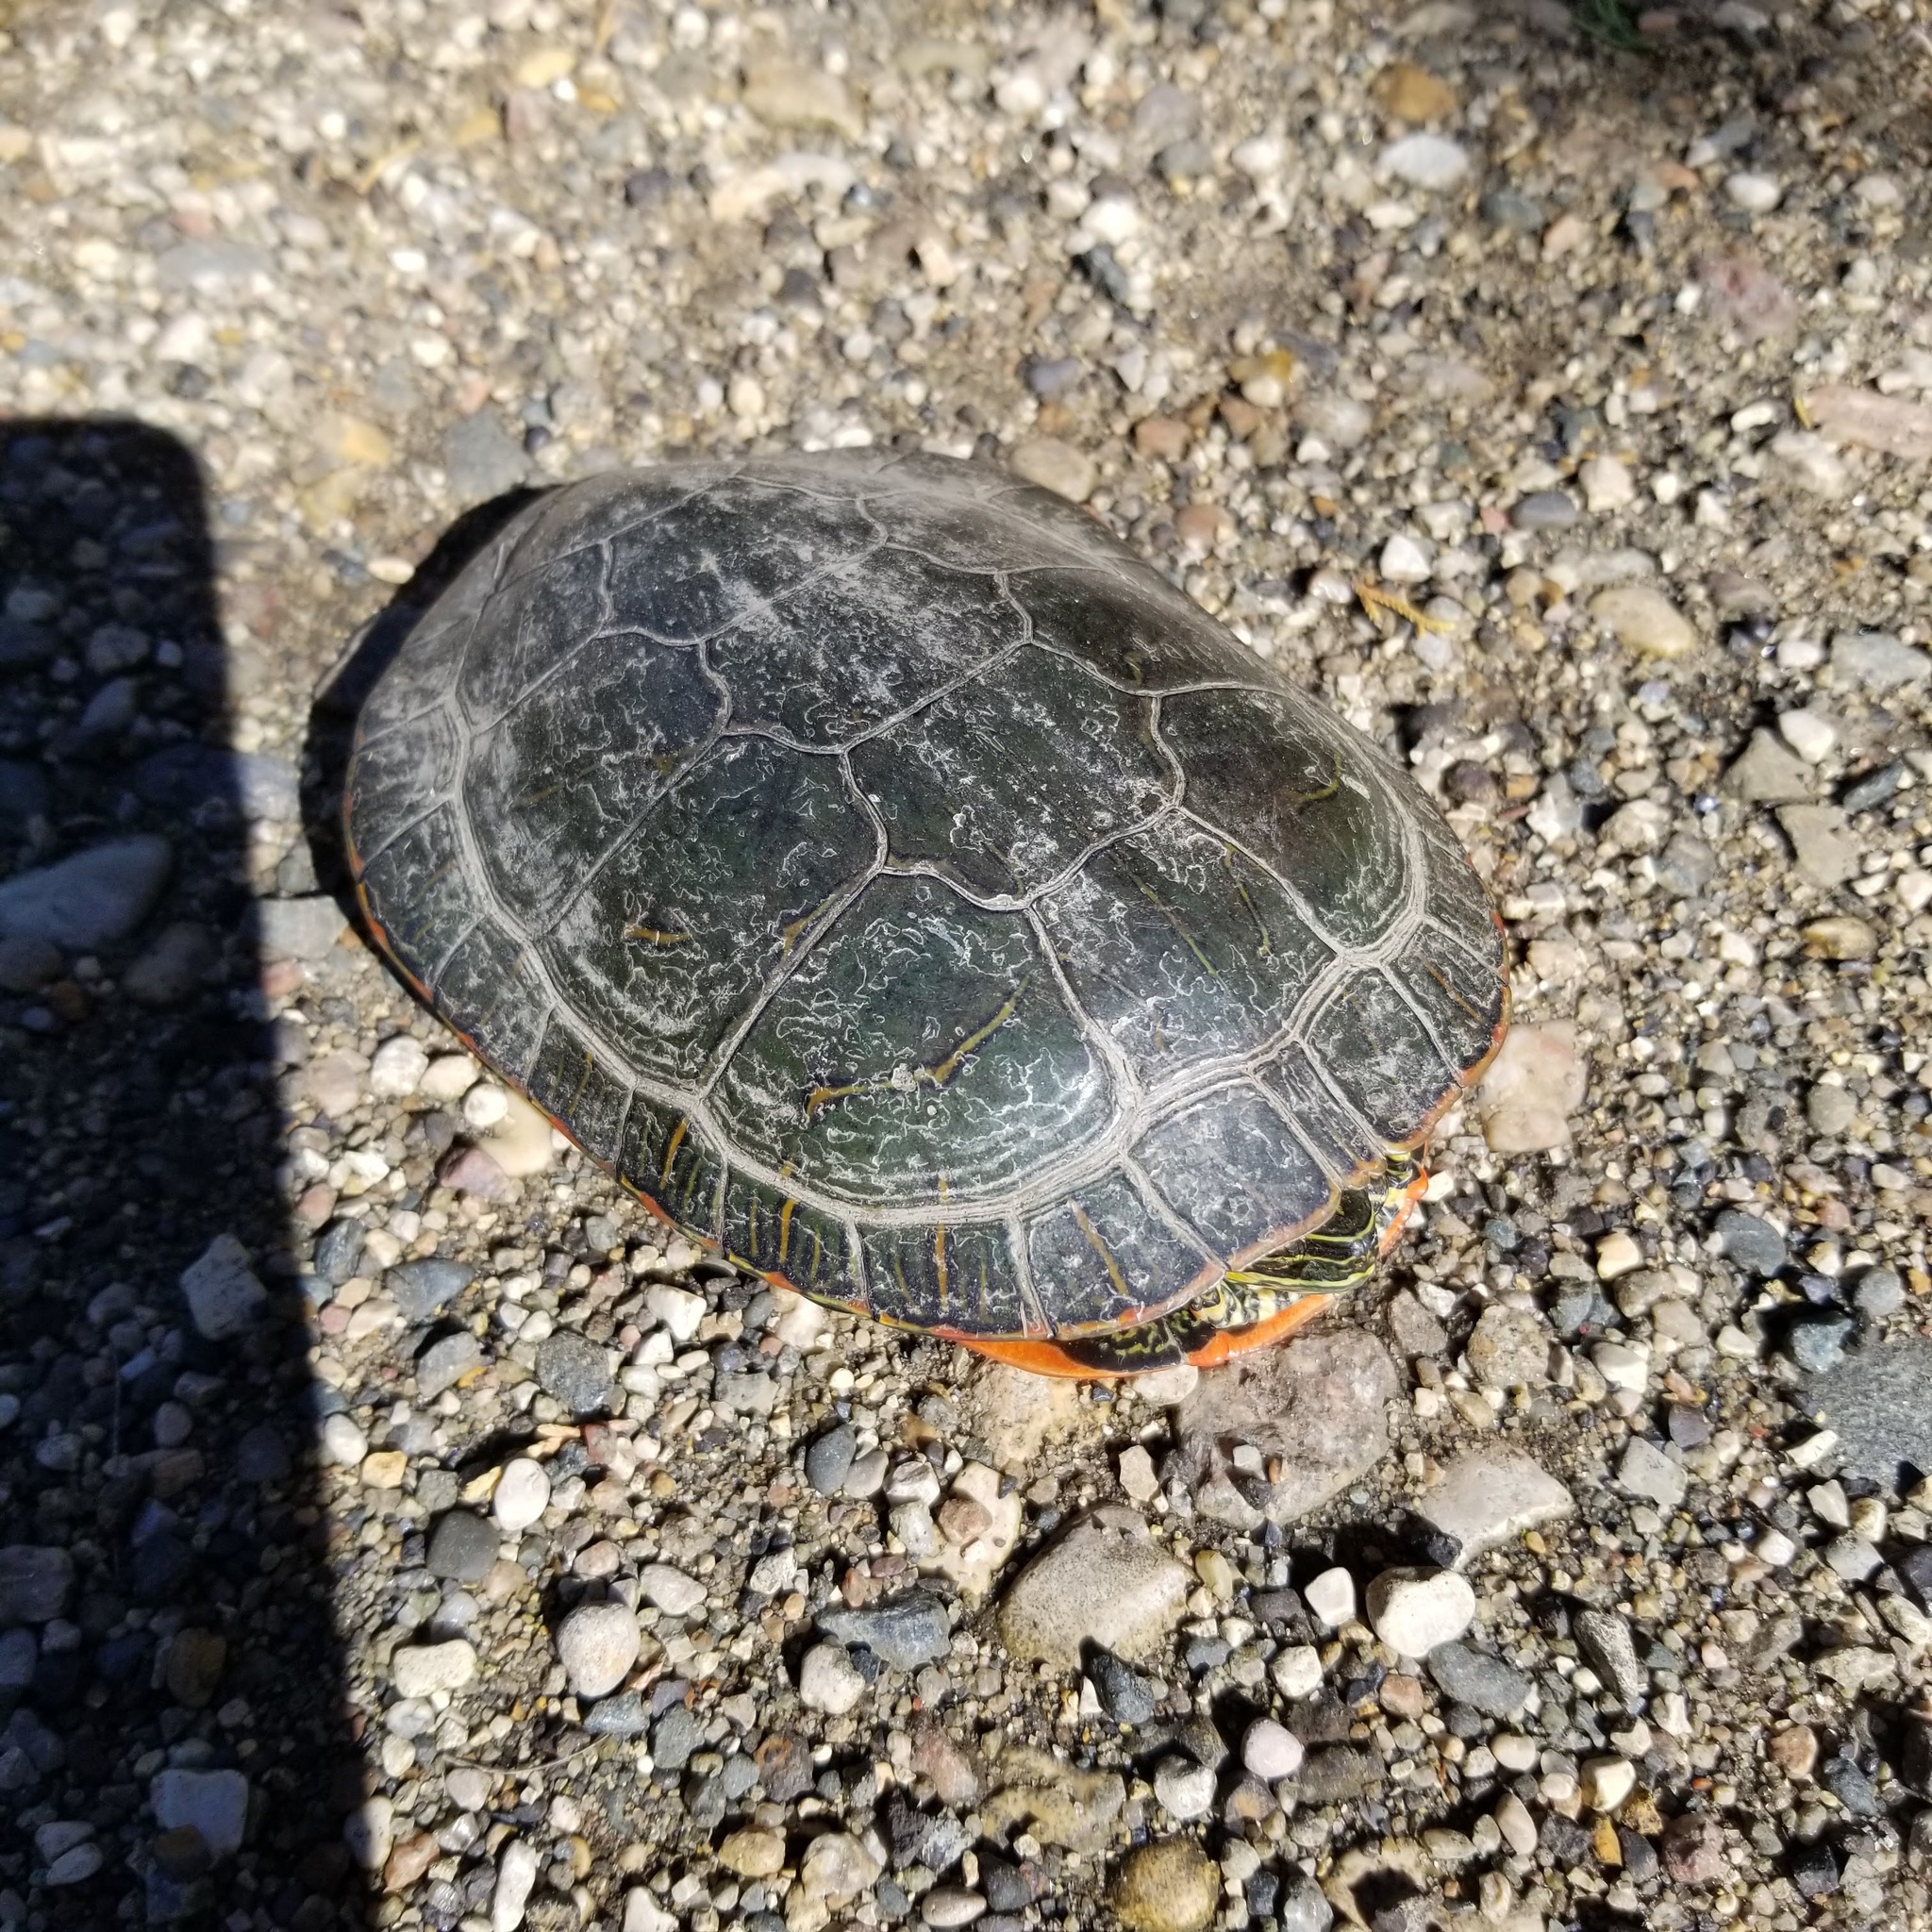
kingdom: Animalia
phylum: Chordata
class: Testudines
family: Emydidae
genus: Chrysemys
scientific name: Chrysemys picta
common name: Painted turtle
